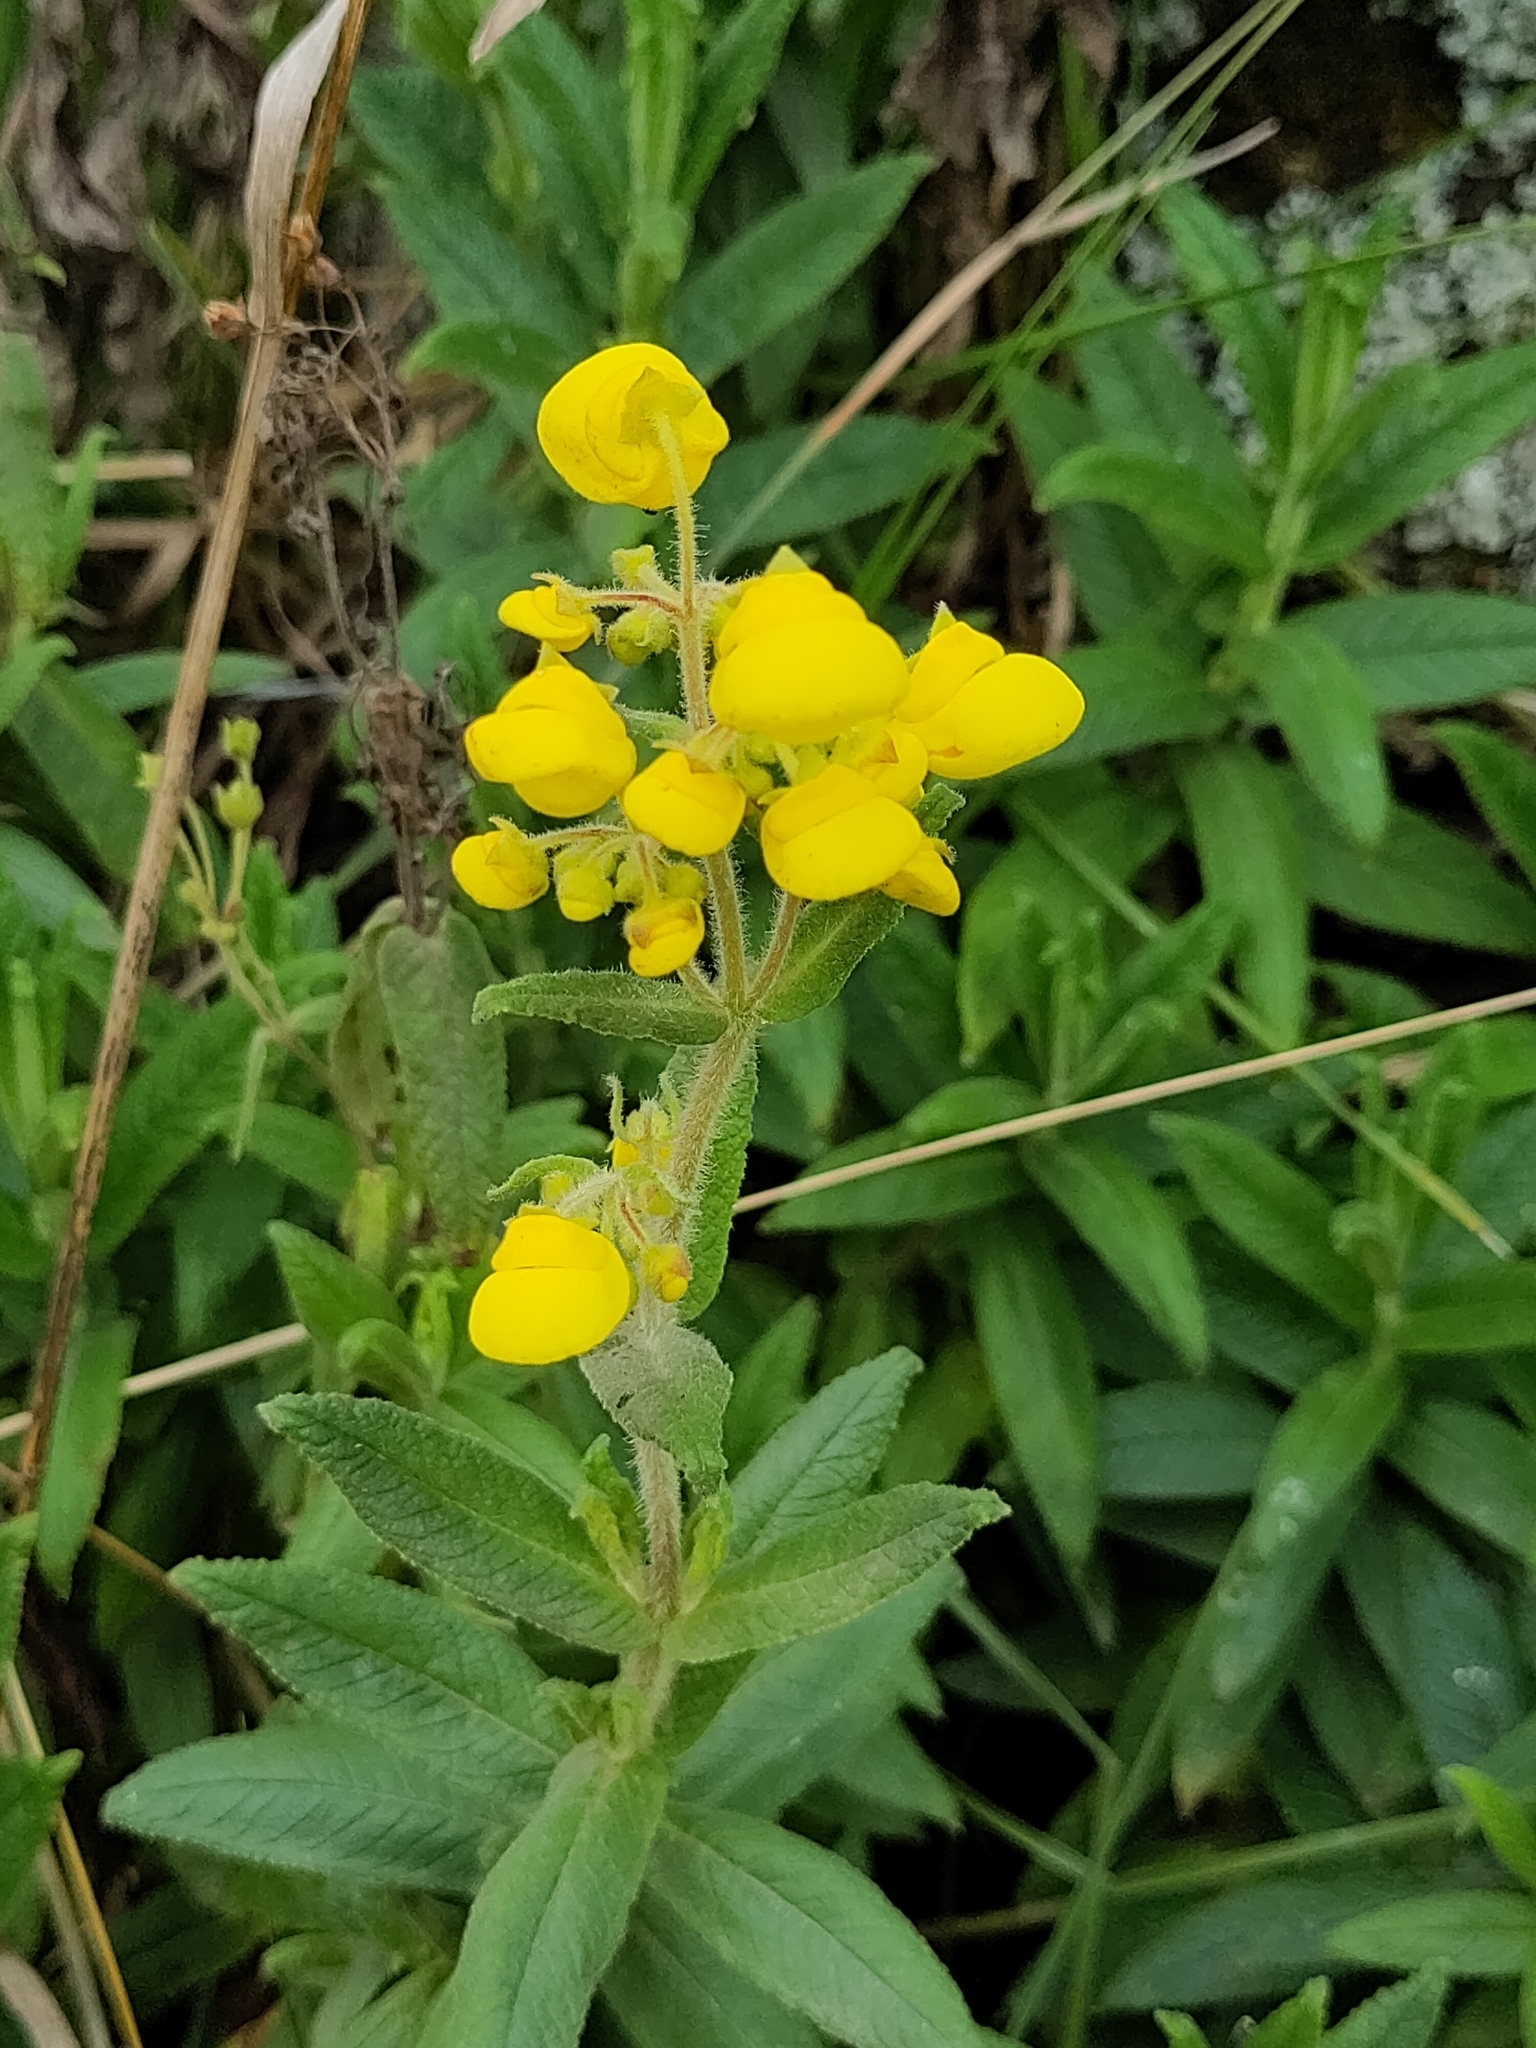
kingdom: Plantae
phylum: Tracheophyta
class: Magnoliopsida
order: Lamiales
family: Calceolariaceae
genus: Calceolaria
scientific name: Calceolaria crenata
